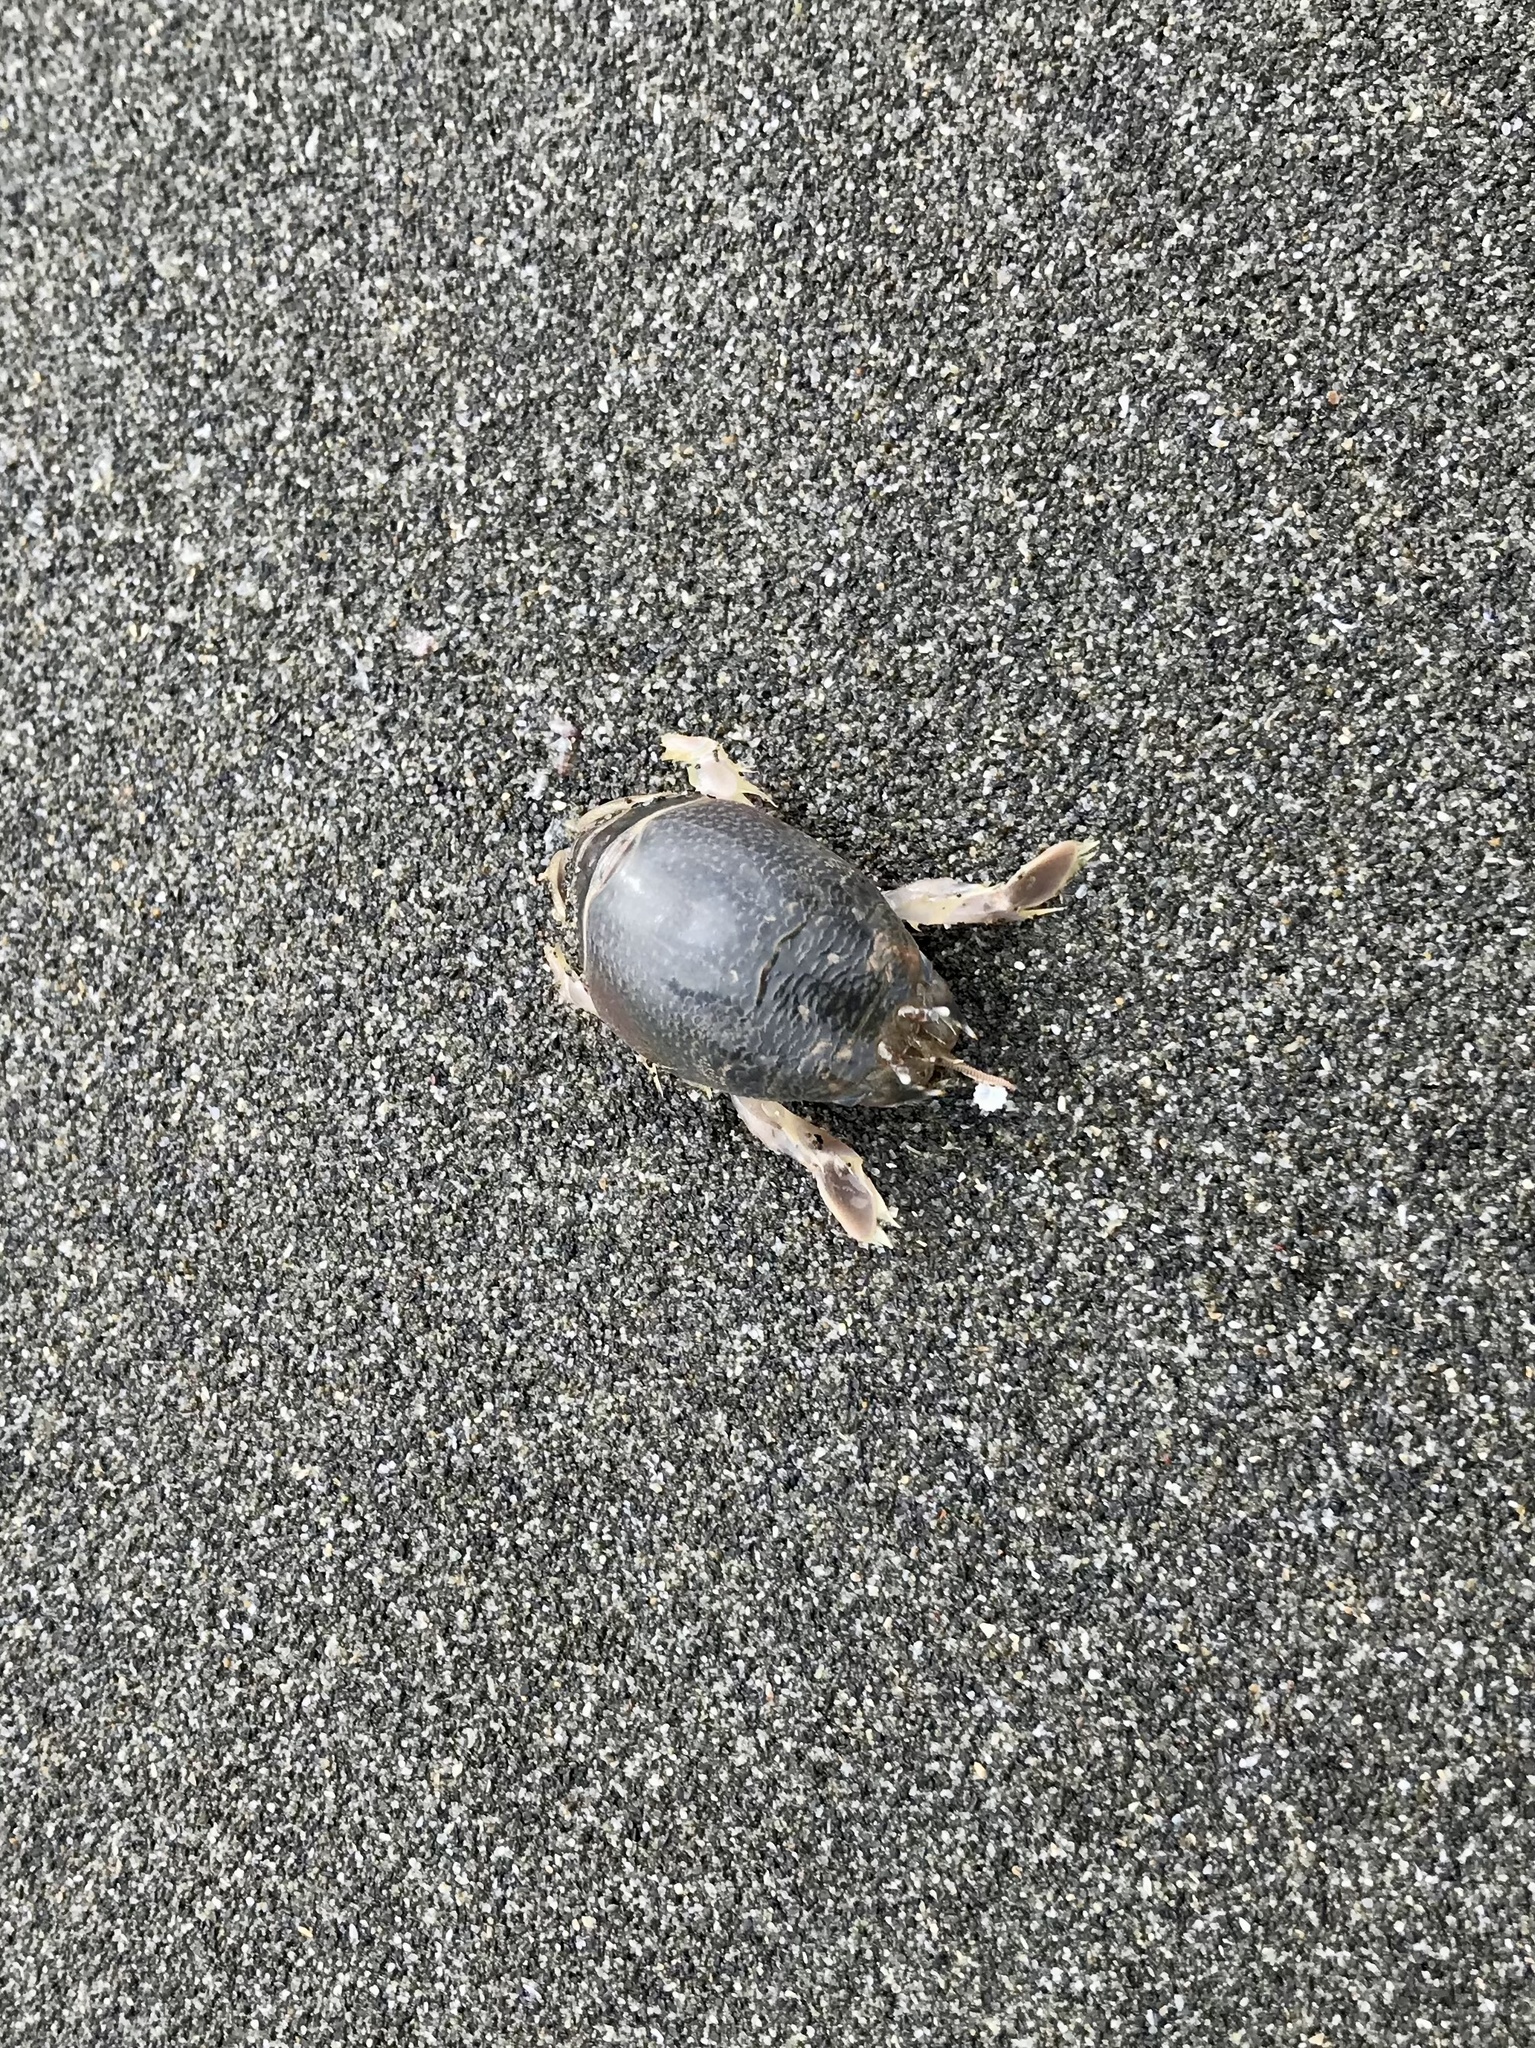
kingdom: Animalia
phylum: Arthropoda
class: Malacostraca
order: Decapoda
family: Hippidae
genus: Emerita
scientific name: Emerita analoga
